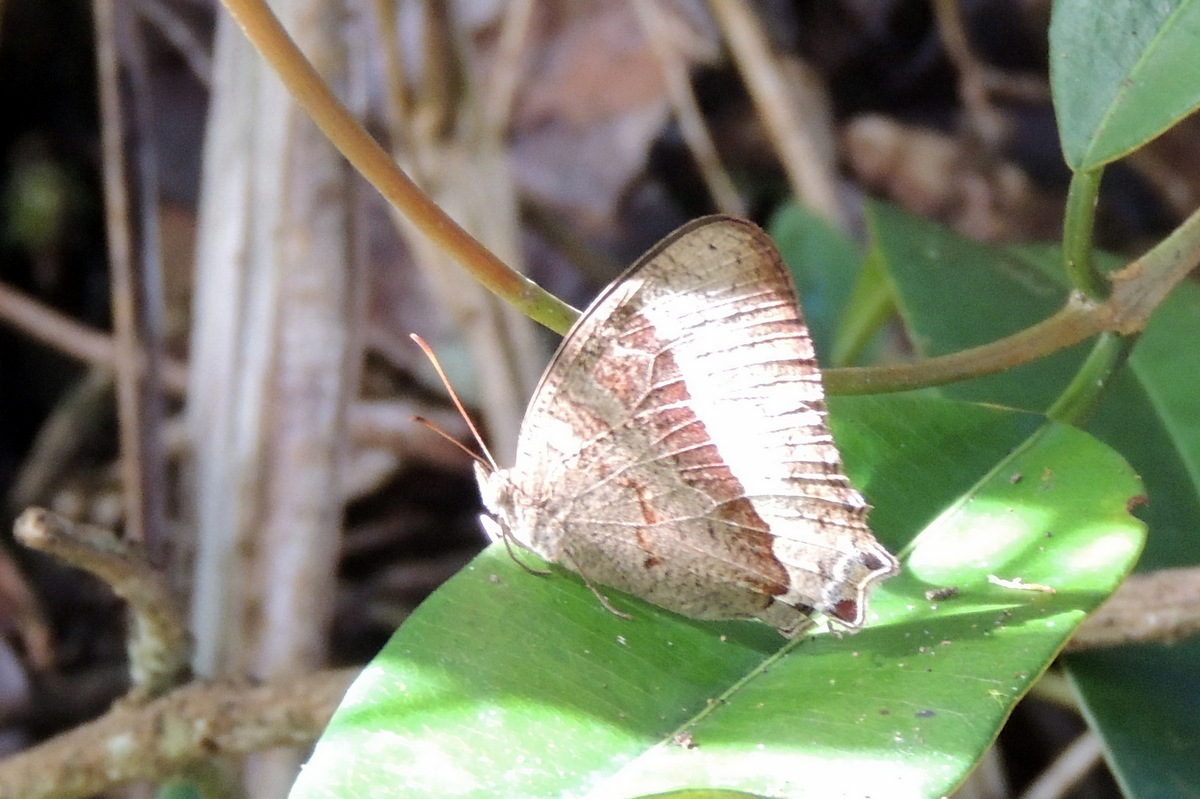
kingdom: Animalia
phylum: Arthropoda
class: Insecta
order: Lepidoptera
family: Nymphalidae
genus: Heteropsis
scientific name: Heteropsis avelona
